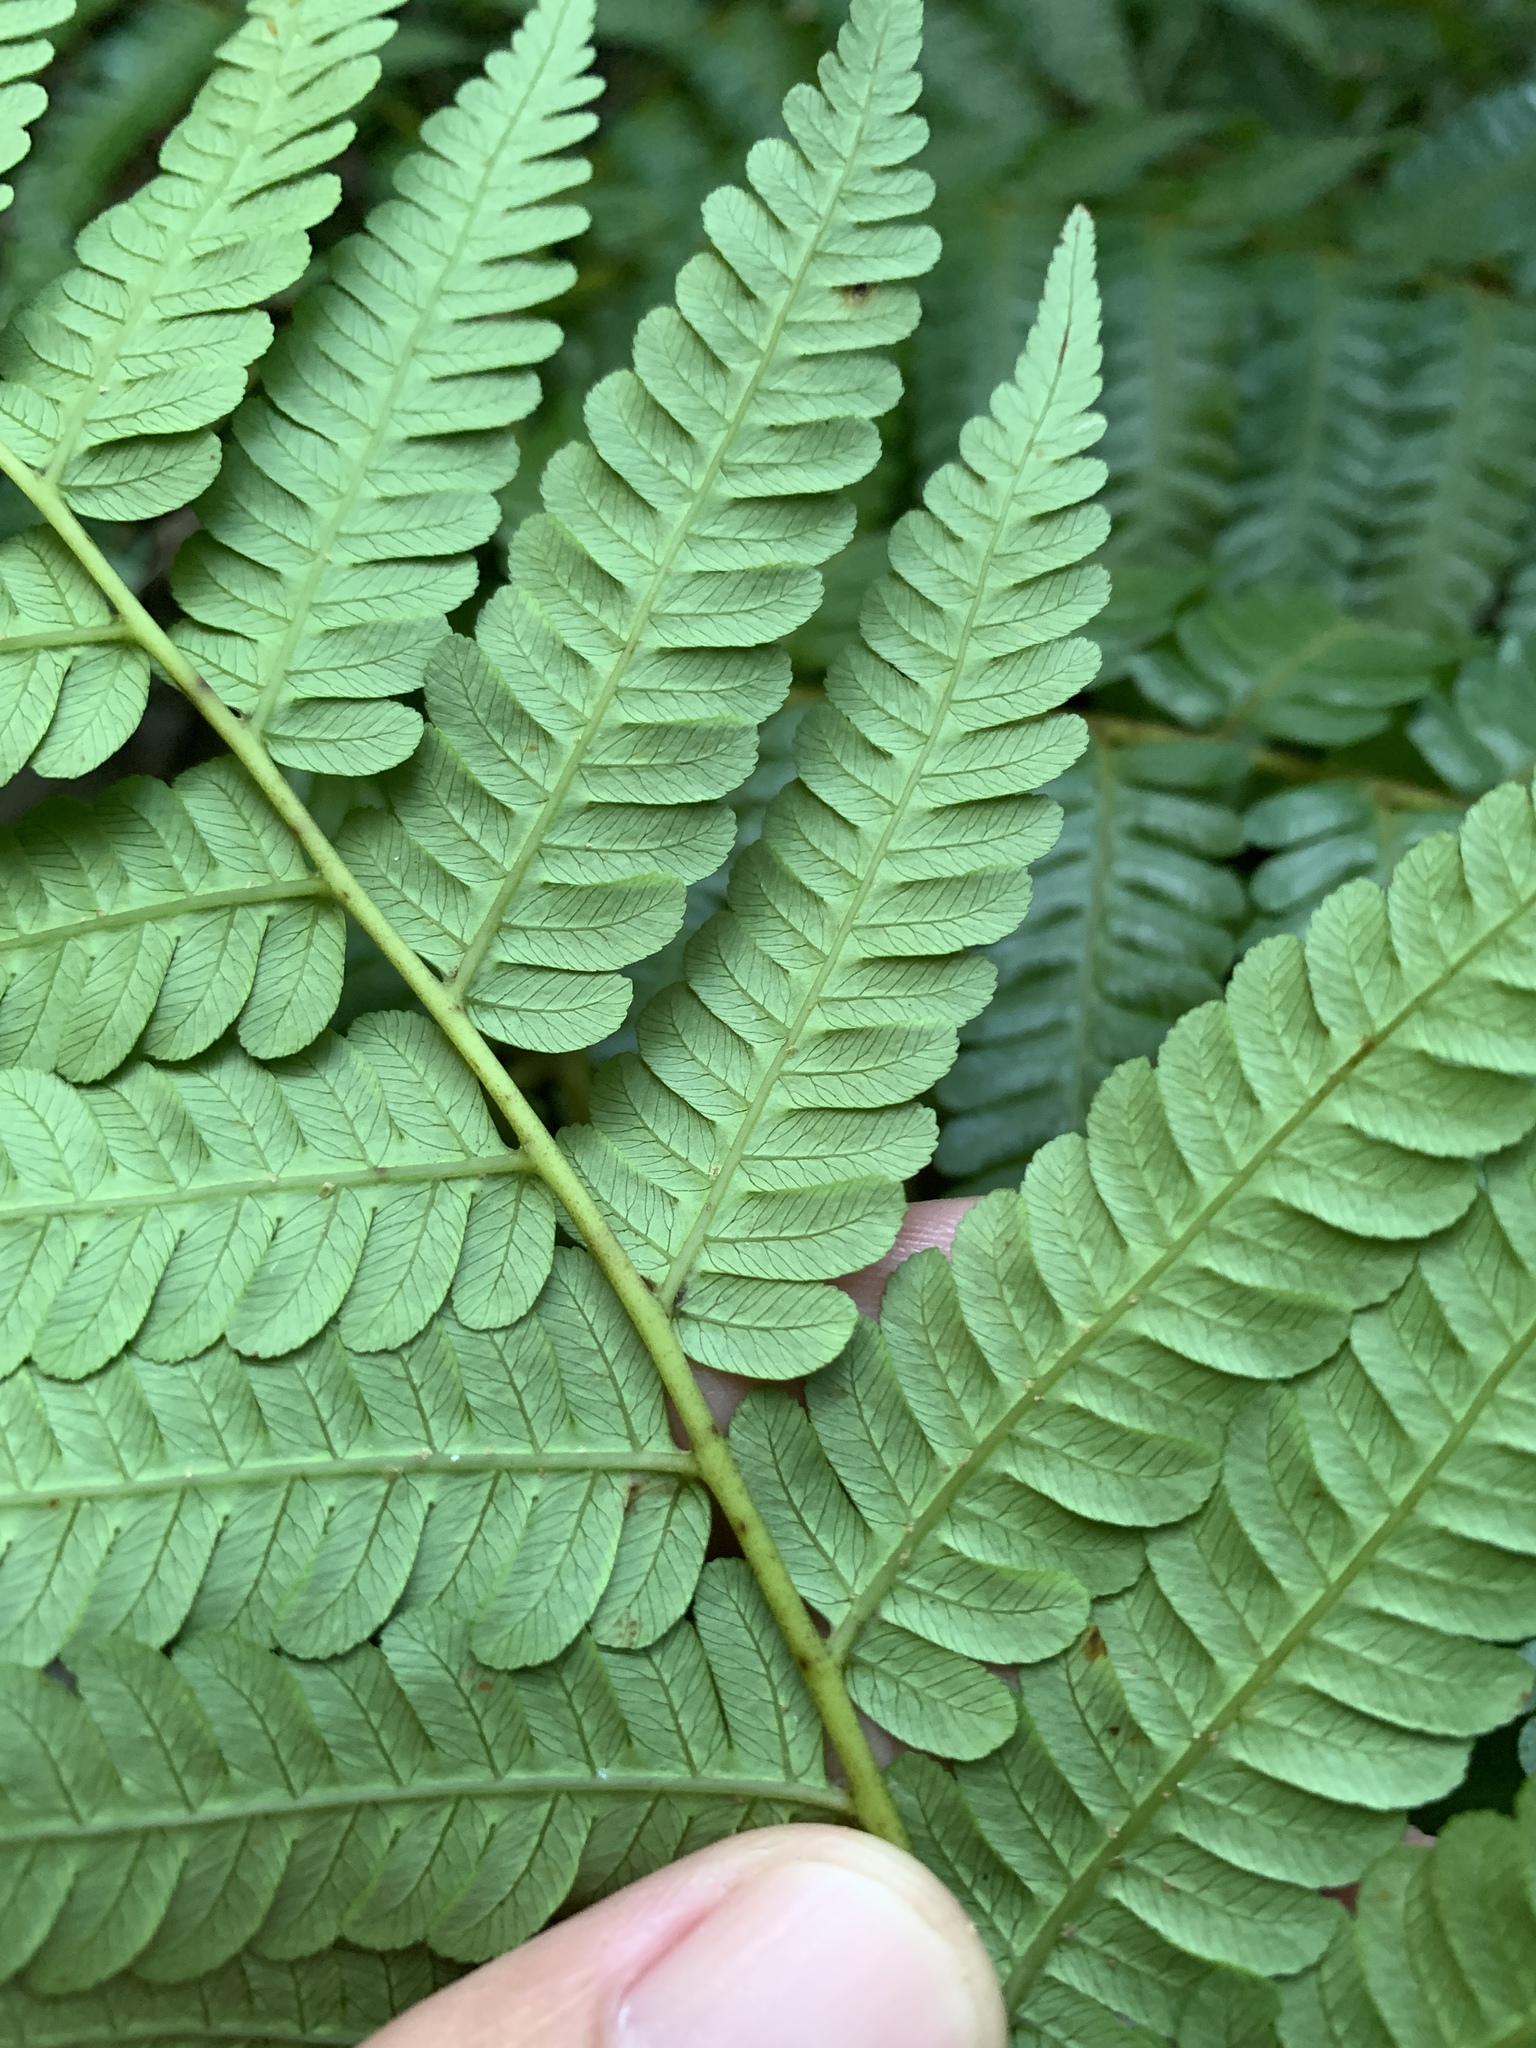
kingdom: Plantae
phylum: Tracheophyta
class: Polypodiopsida
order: Cyatheales
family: Cyatheaceae
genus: Alsophila
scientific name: Alsophila fenicis
